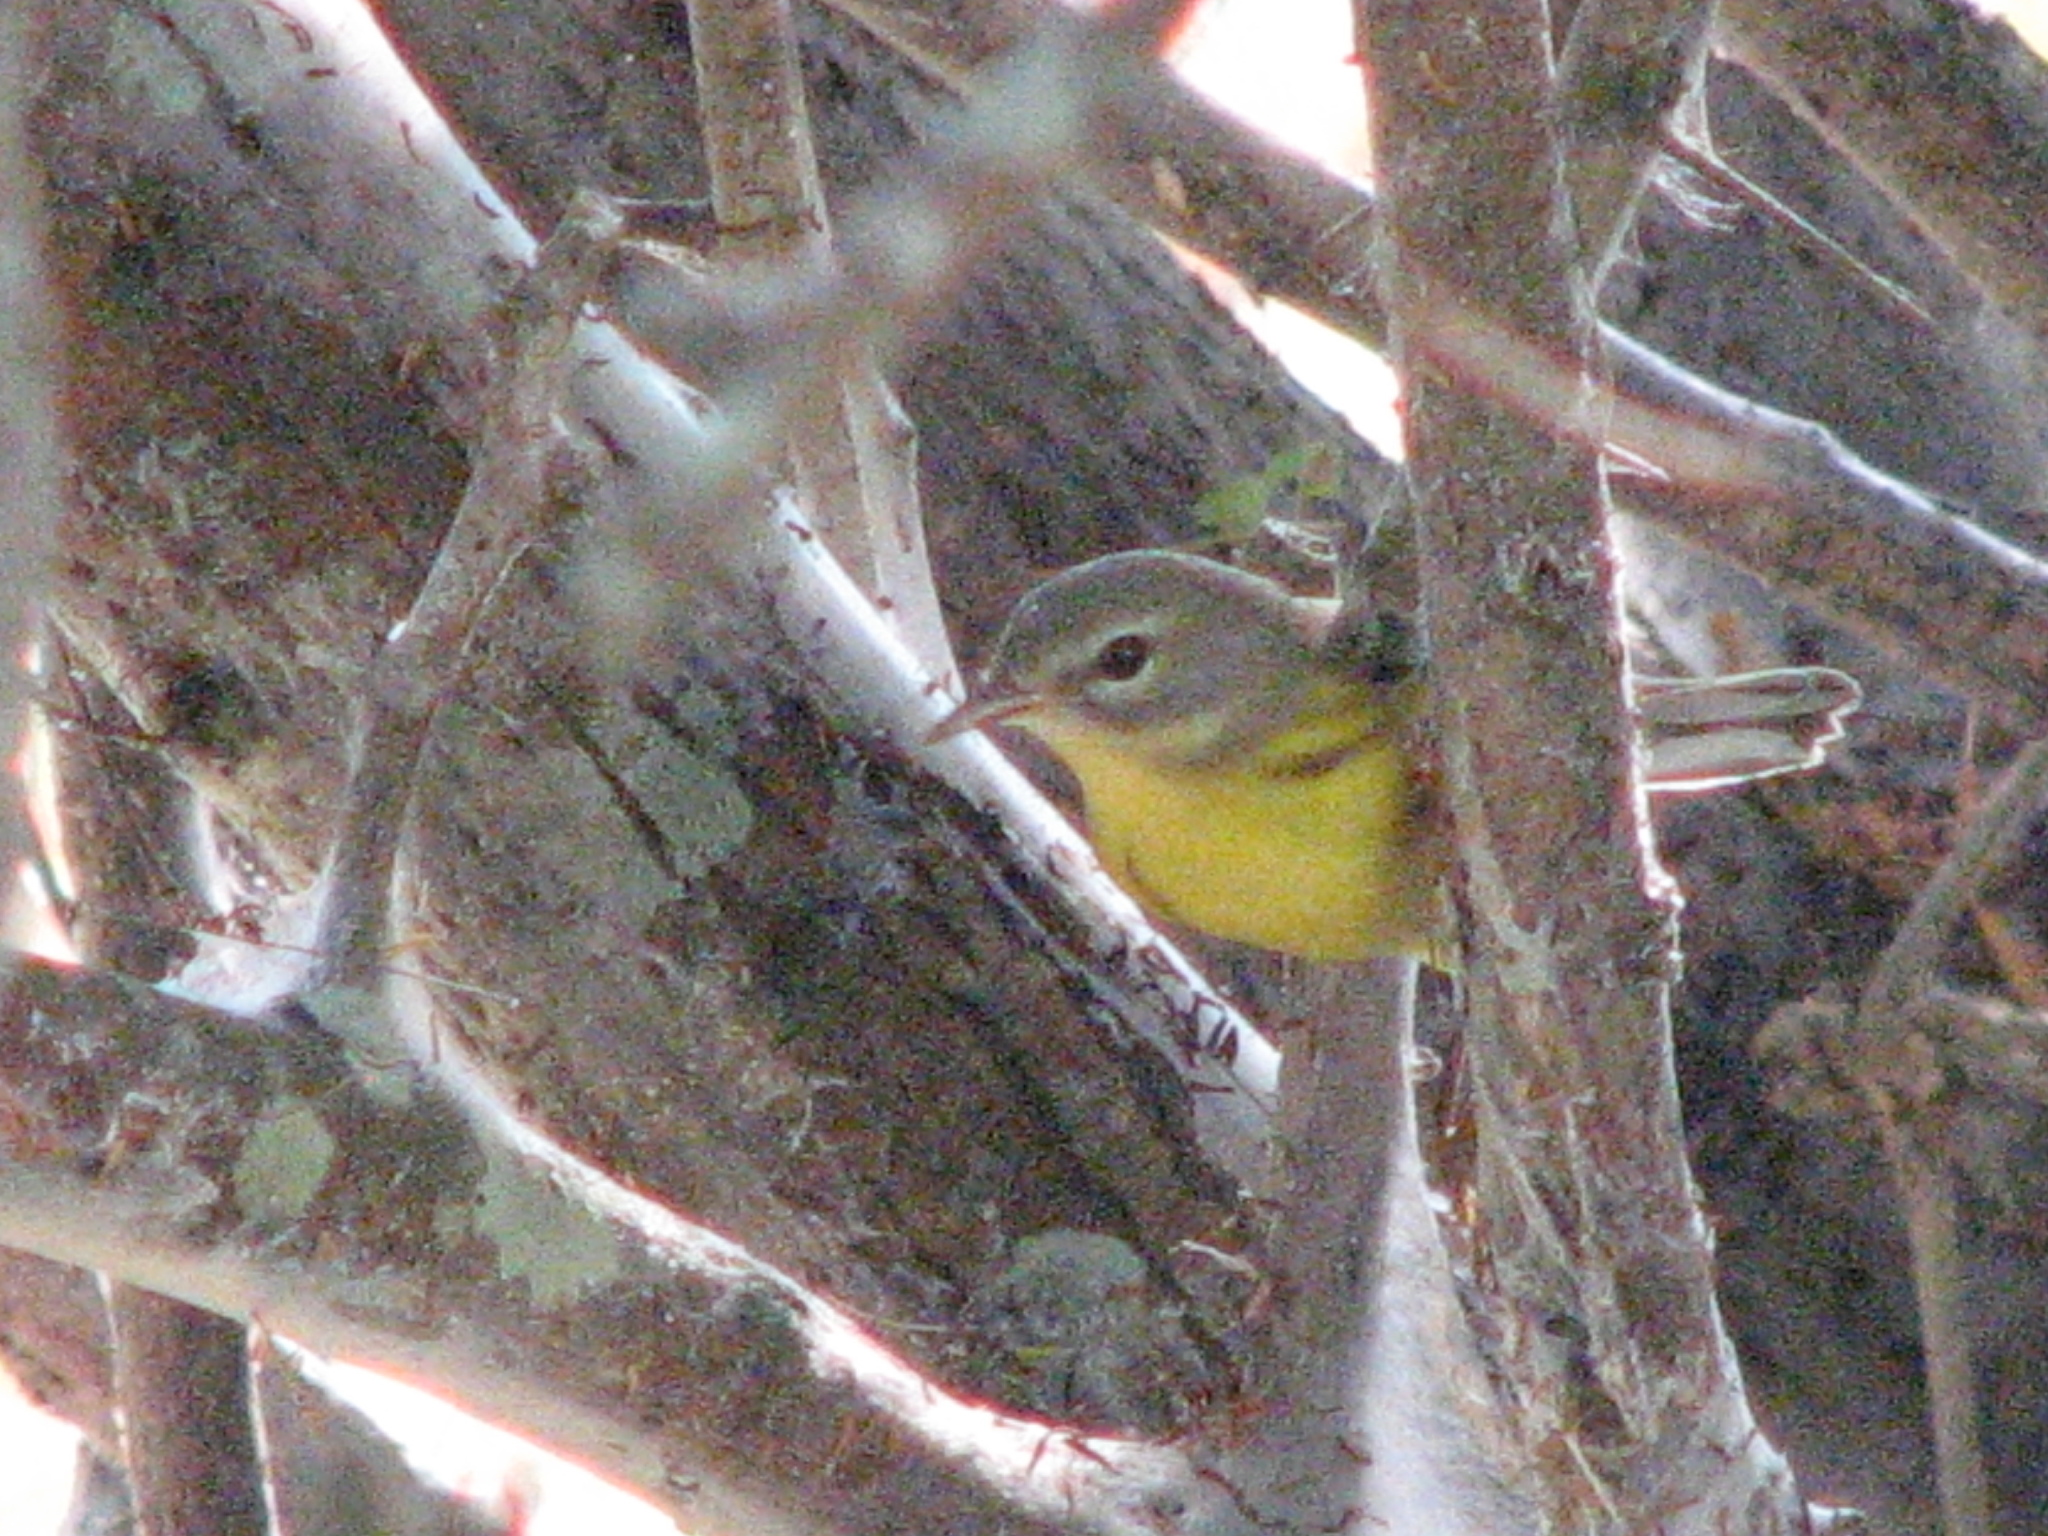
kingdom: Animalia
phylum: Chordata
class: Aves
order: Passeriformes
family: Parulidae
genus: Setophaga
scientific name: Setophaga discolor
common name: Prairie warbler
